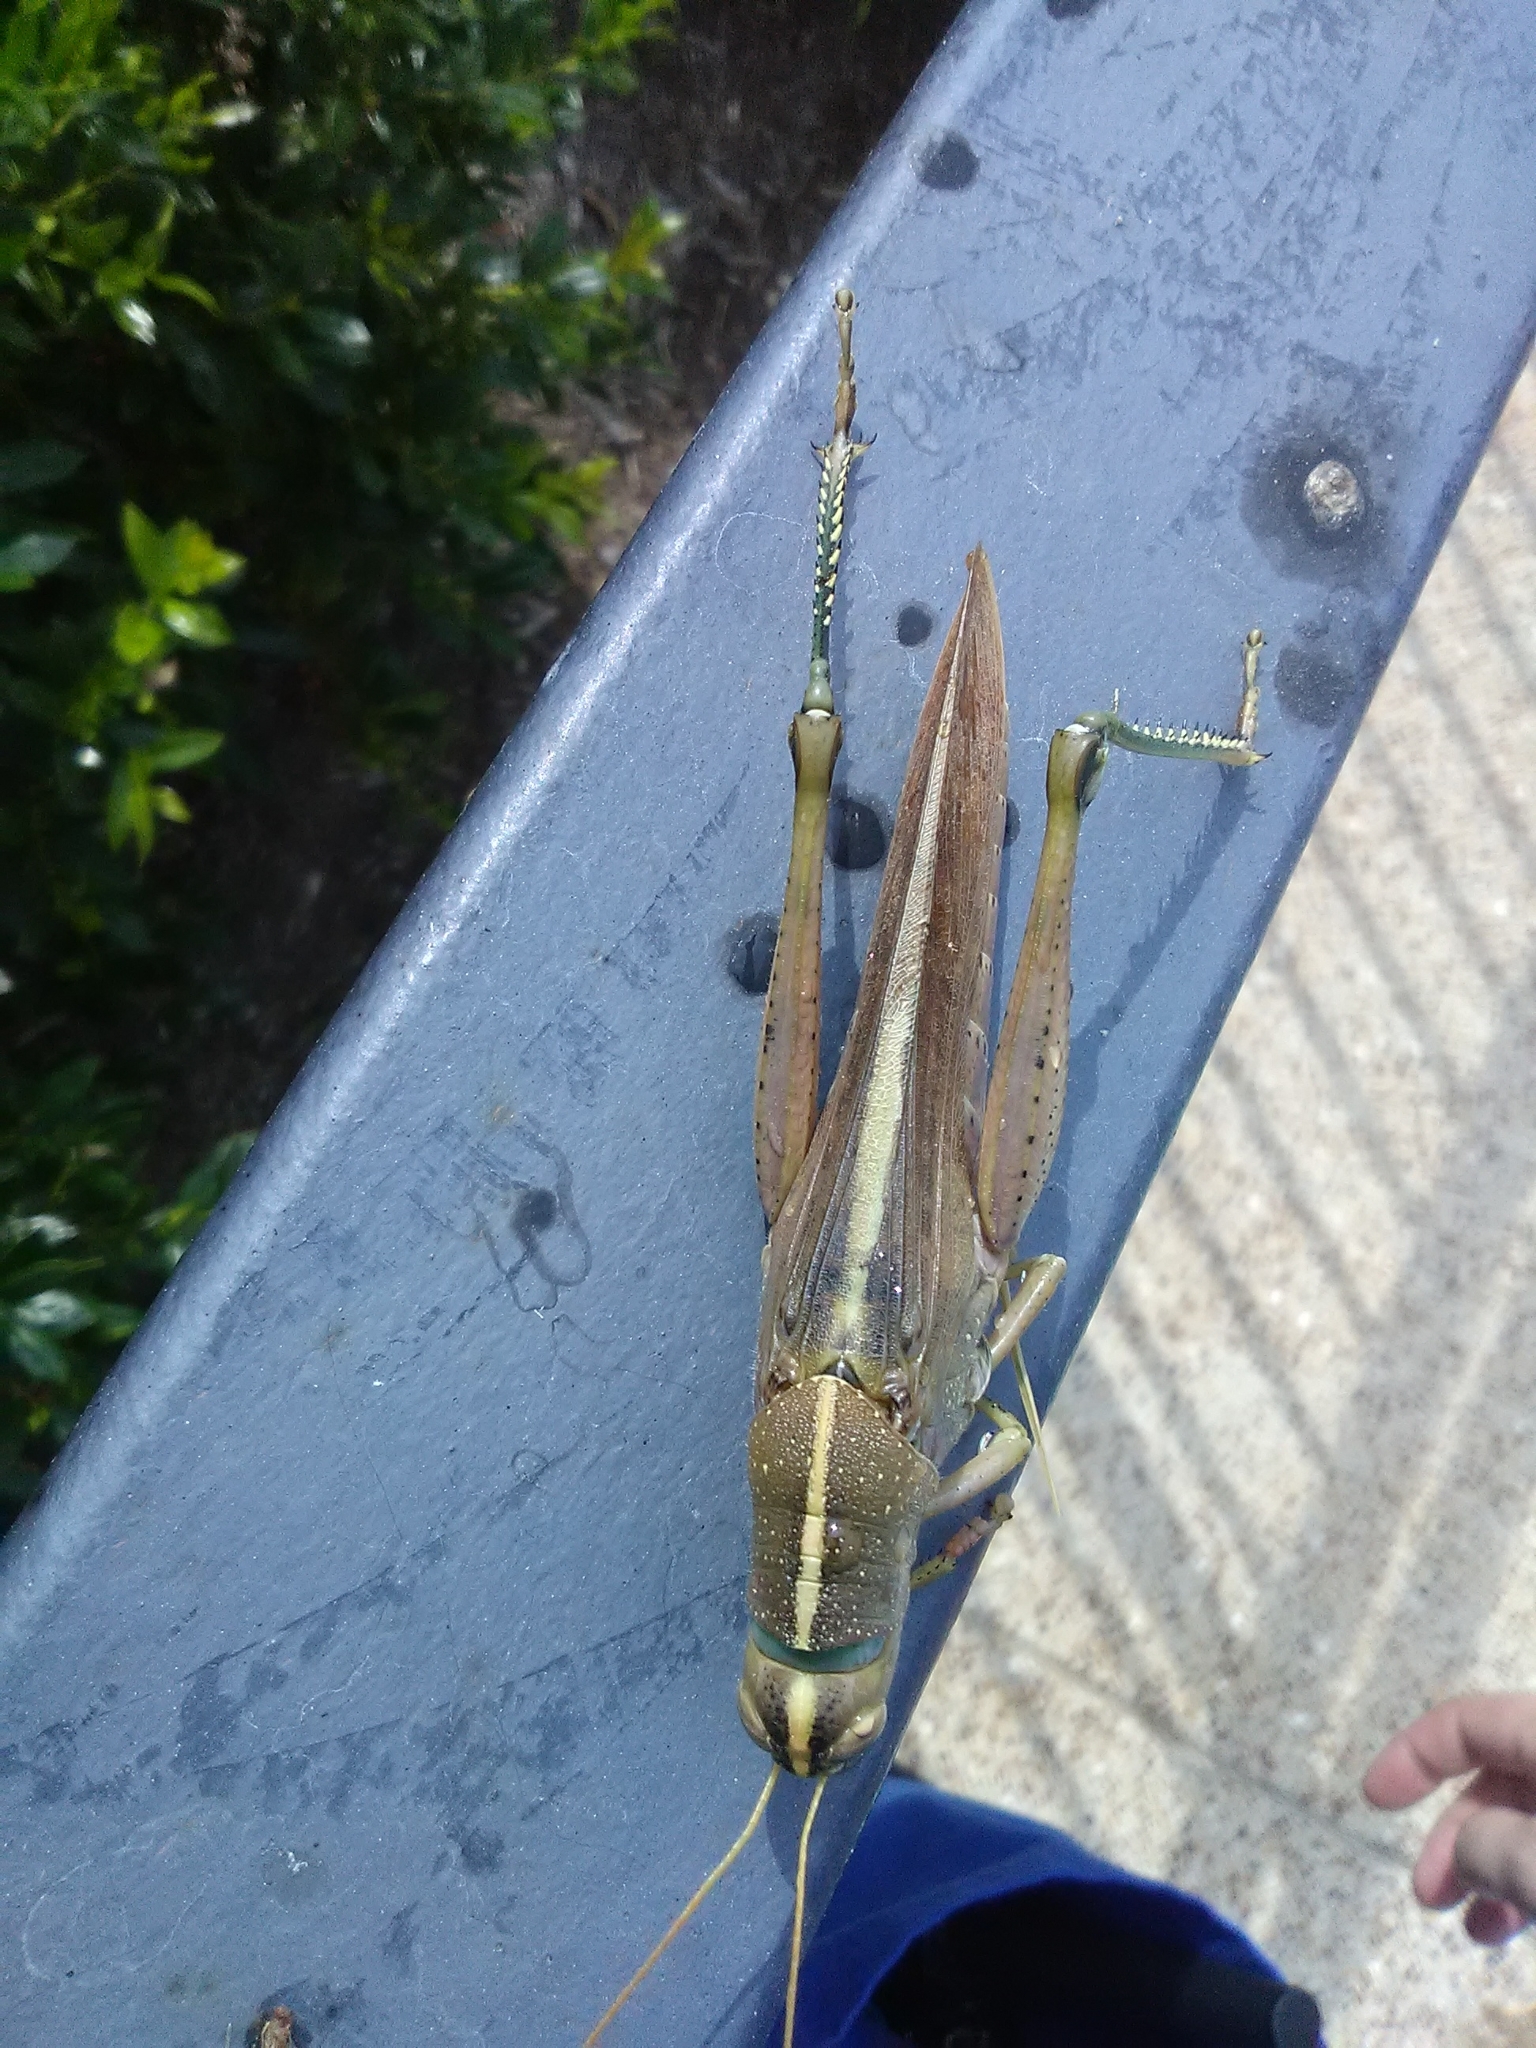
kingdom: Animalia
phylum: Arthropoda
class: Insecta
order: Orthoptera
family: Acrididae
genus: Schistocerca
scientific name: Schistocerca lineata
